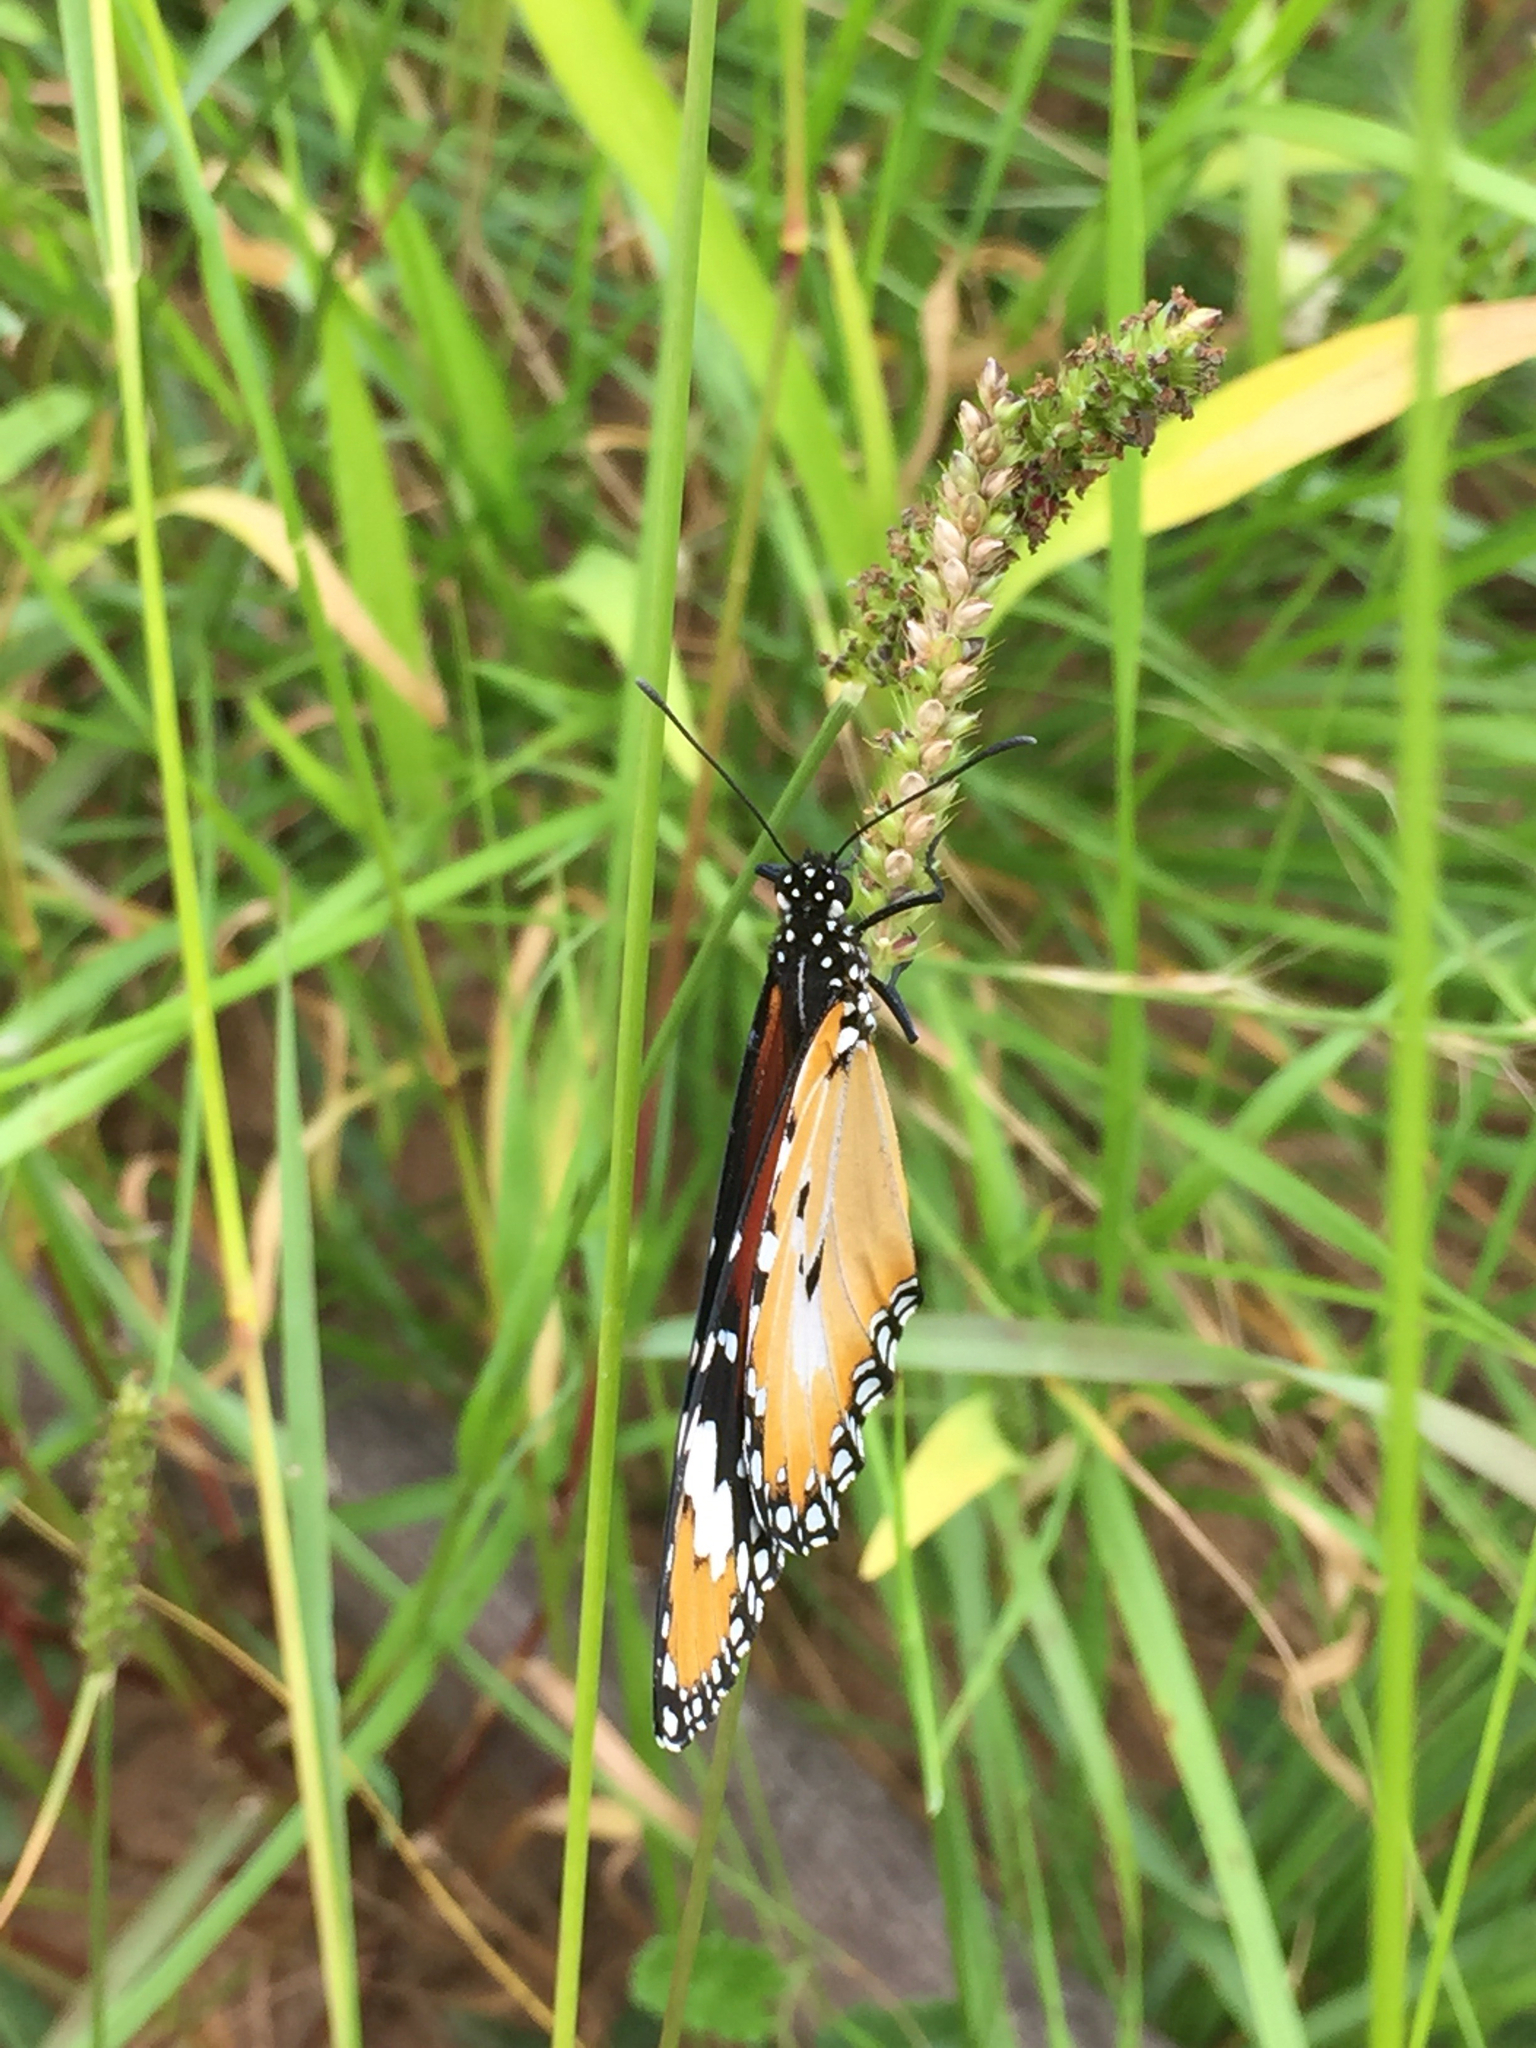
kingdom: Animalia
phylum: Arthropoda
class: Insecta
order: Lepidoptera
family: Nymphalidae
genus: Danaus
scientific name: Danaus chrysippus
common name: Plain tiger
